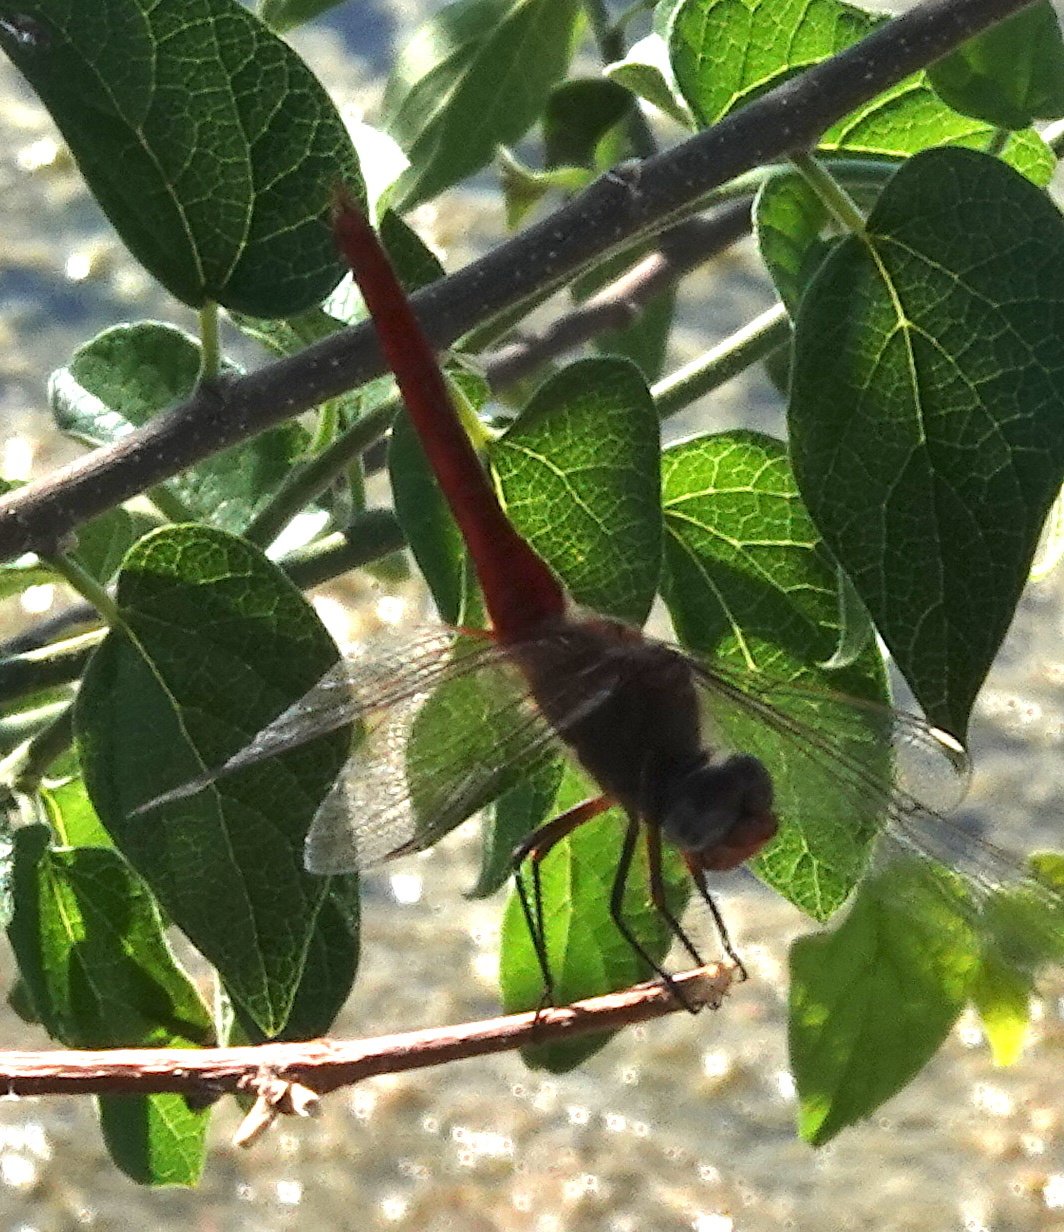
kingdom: Animalia
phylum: Arthropoda
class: Insecta
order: Odonata
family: Libellulidae
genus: Brachymesia
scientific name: Brachymesia furcata
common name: Red-taled pennant
